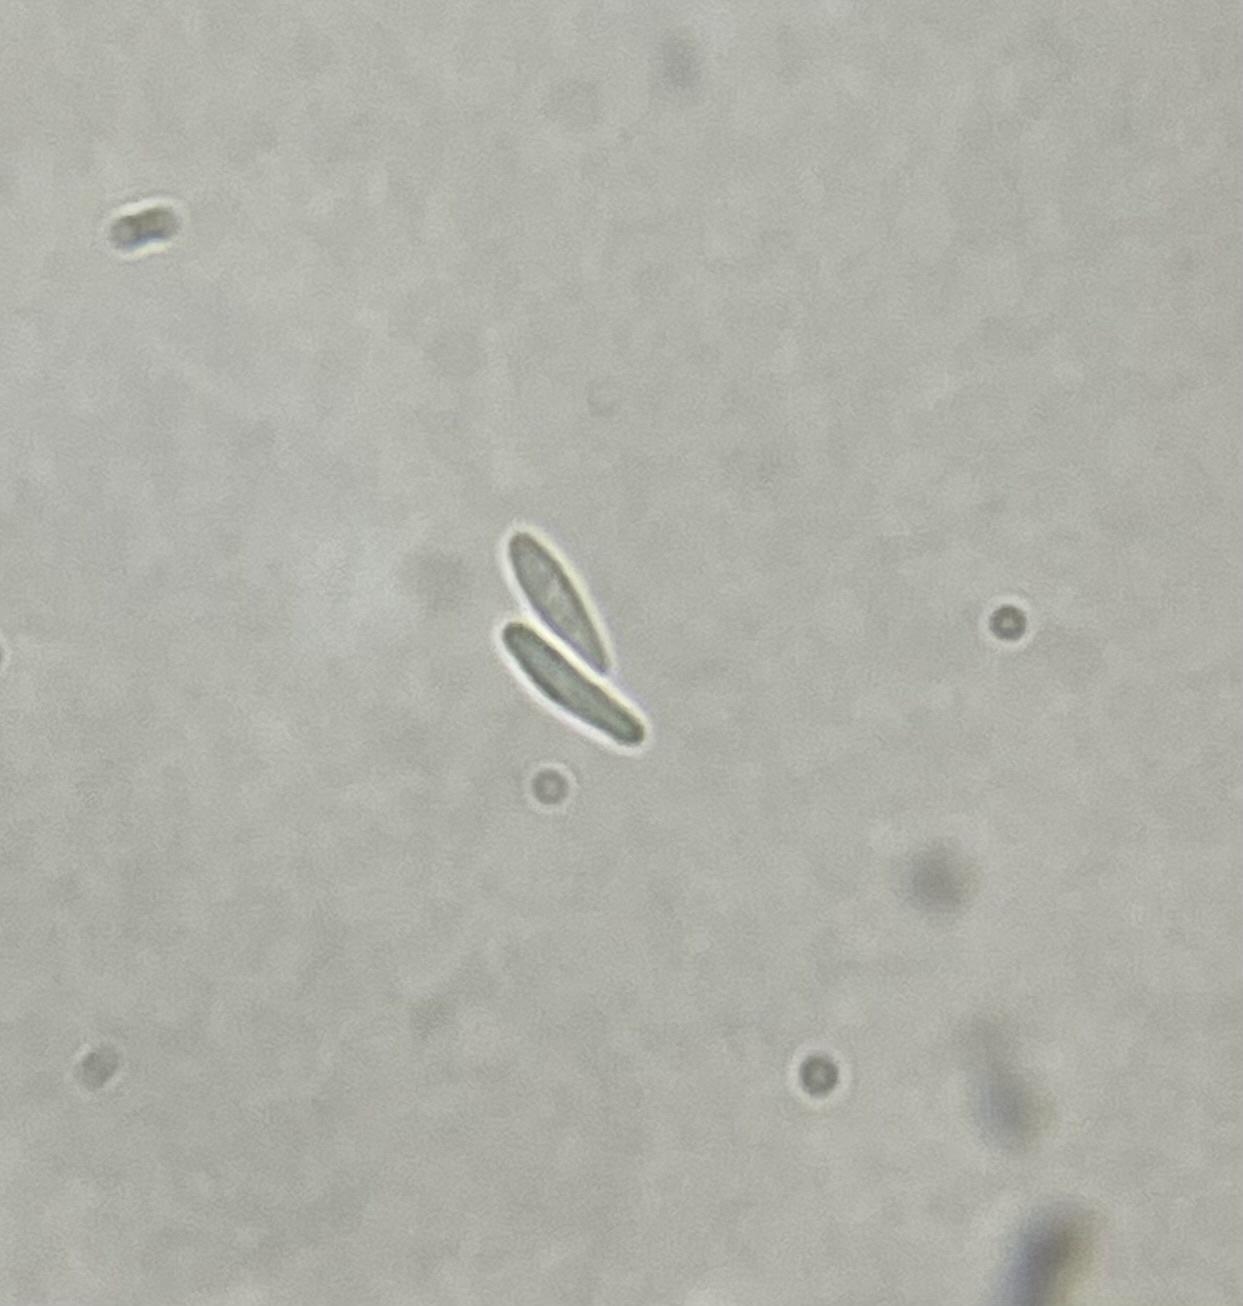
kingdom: Fungi
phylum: Ascomycota
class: Leotiomycetes
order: Helotiales
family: Lachnaceae
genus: Lachnum
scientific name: Lachnum virgineum
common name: Snowy disco
